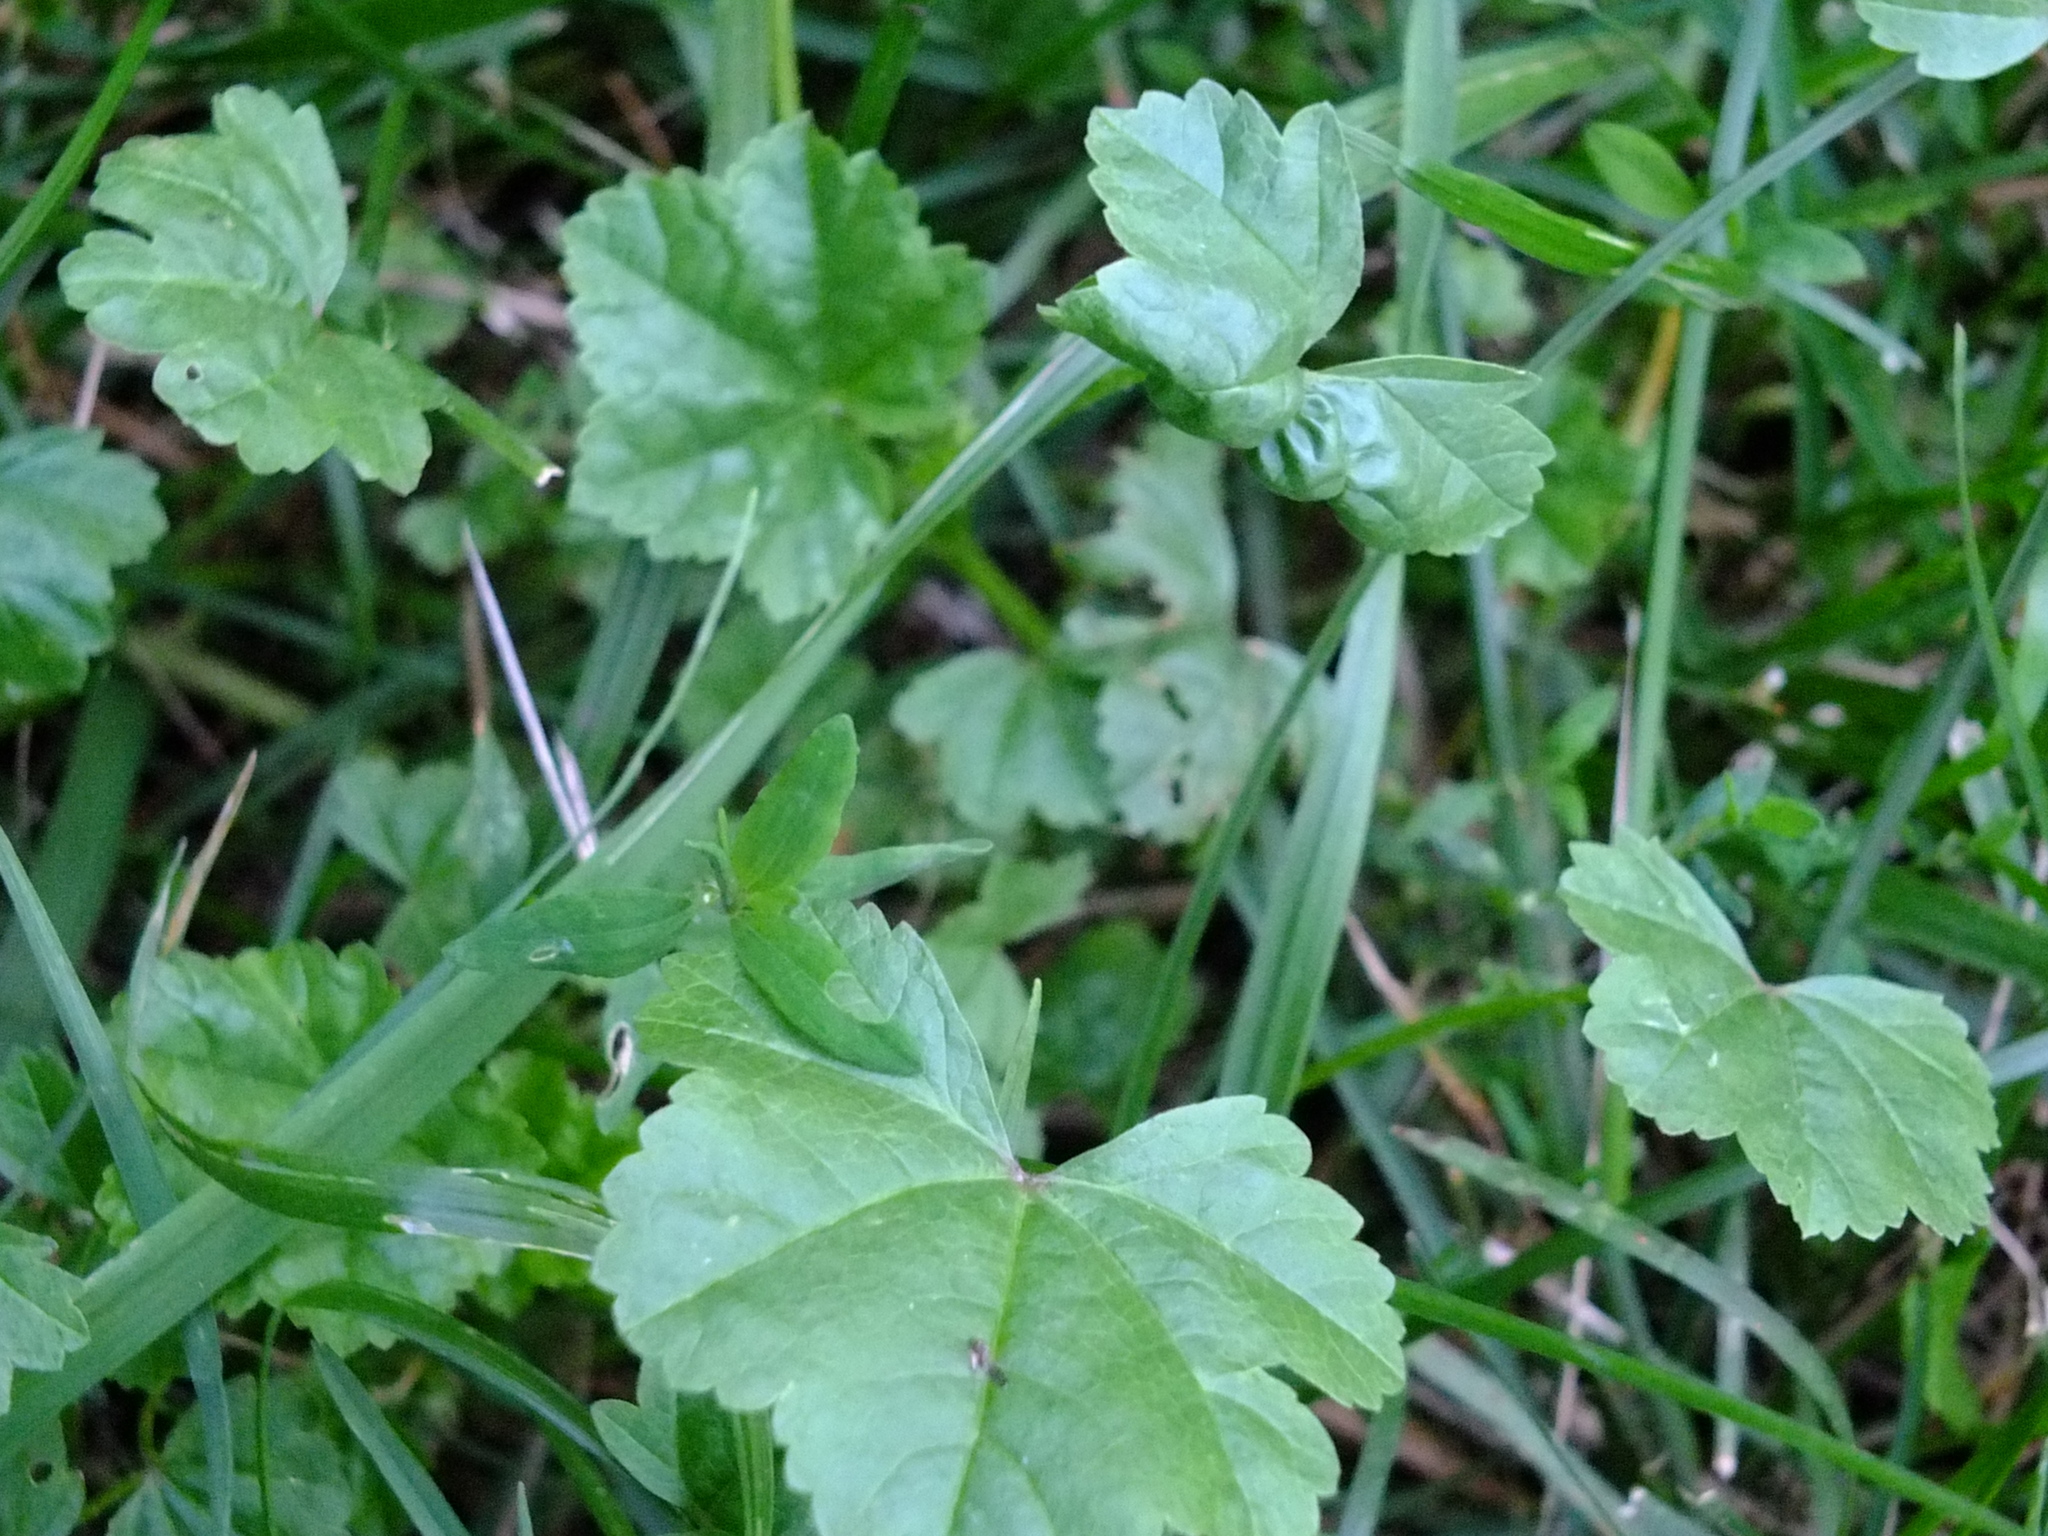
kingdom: Plantae
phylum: Tracheophyta
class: Magnoliopsida
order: Malvales
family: Malvaceae
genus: Malva
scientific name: Malva pusilla
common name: Small mallow
